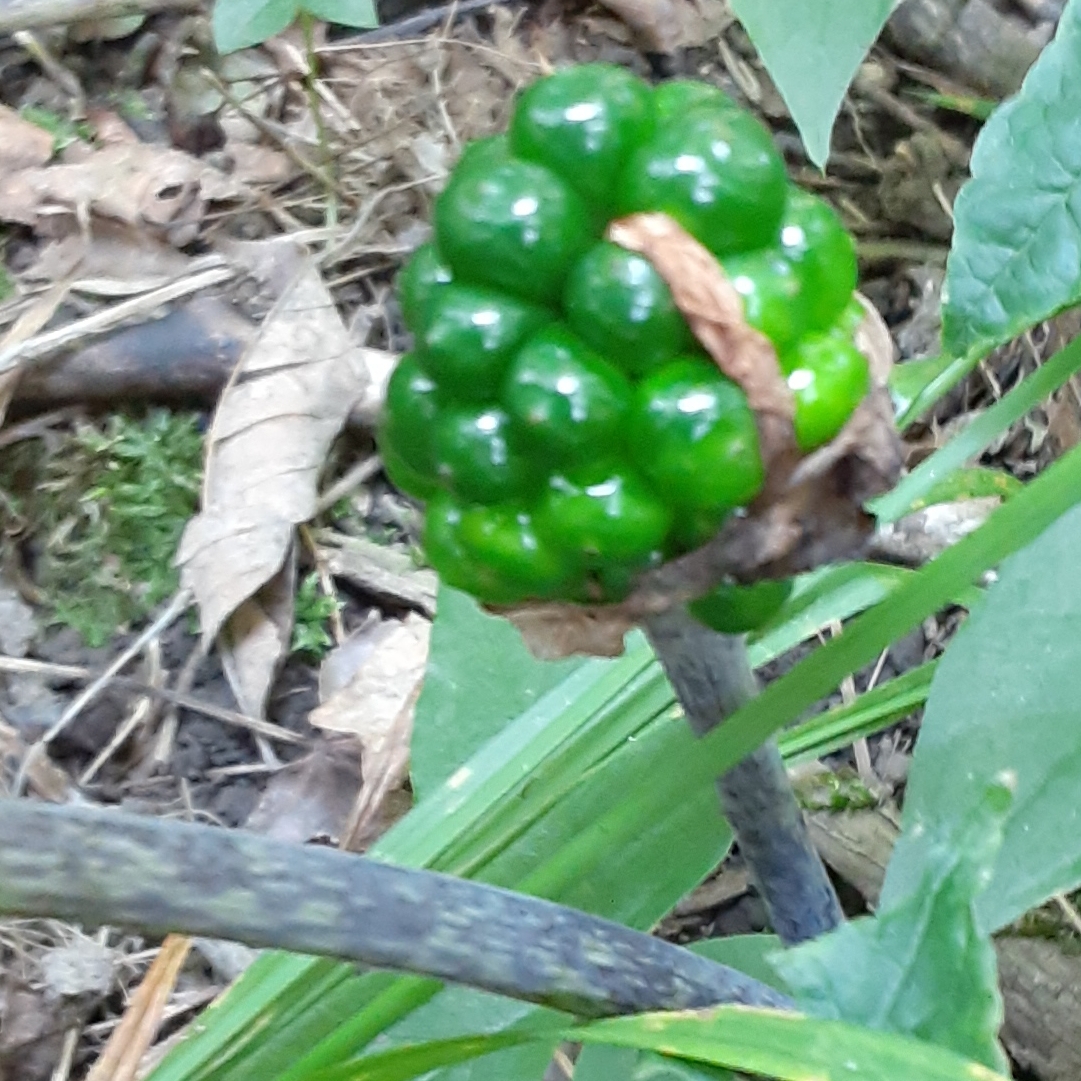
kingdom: Plantae
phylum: Tracheophyta
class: Liliopsida
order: Alismatales
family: Araceae
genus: Arisaema
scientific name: Arisaema triphyllum
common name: Jack-in-the-pulpit
